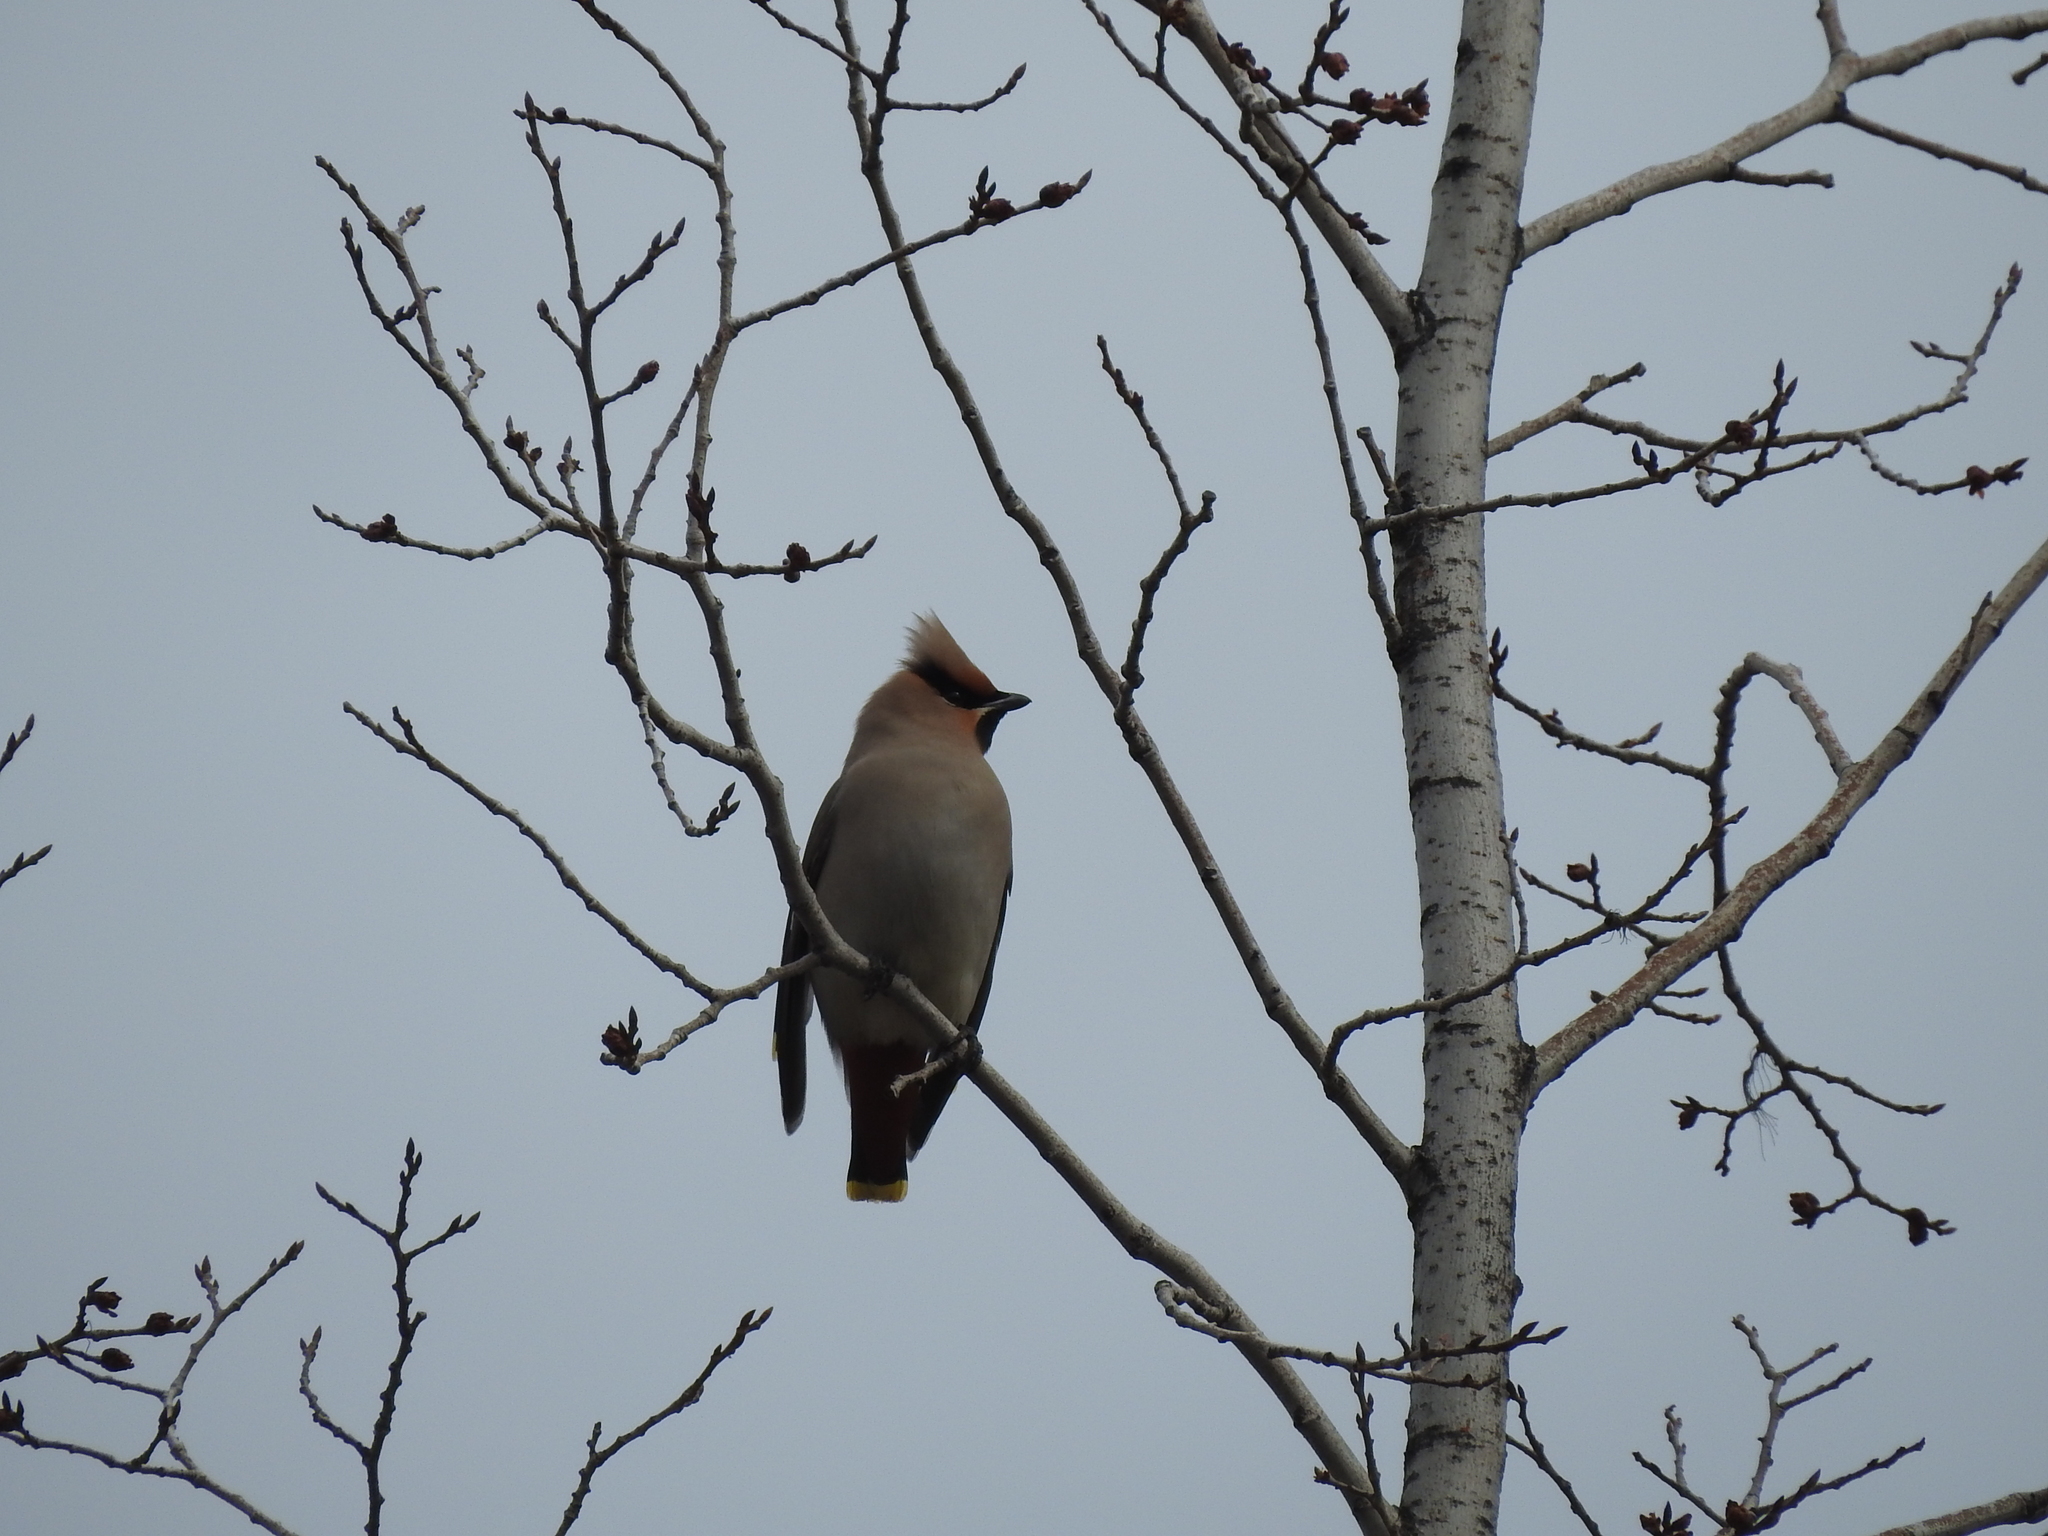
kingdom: Animalia
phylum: Chordata
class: Aves
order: Passeriformes
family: Bombycillidae
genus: Bombycilla
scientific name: Bombycilla garrulus
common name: Bohemian waxwing
